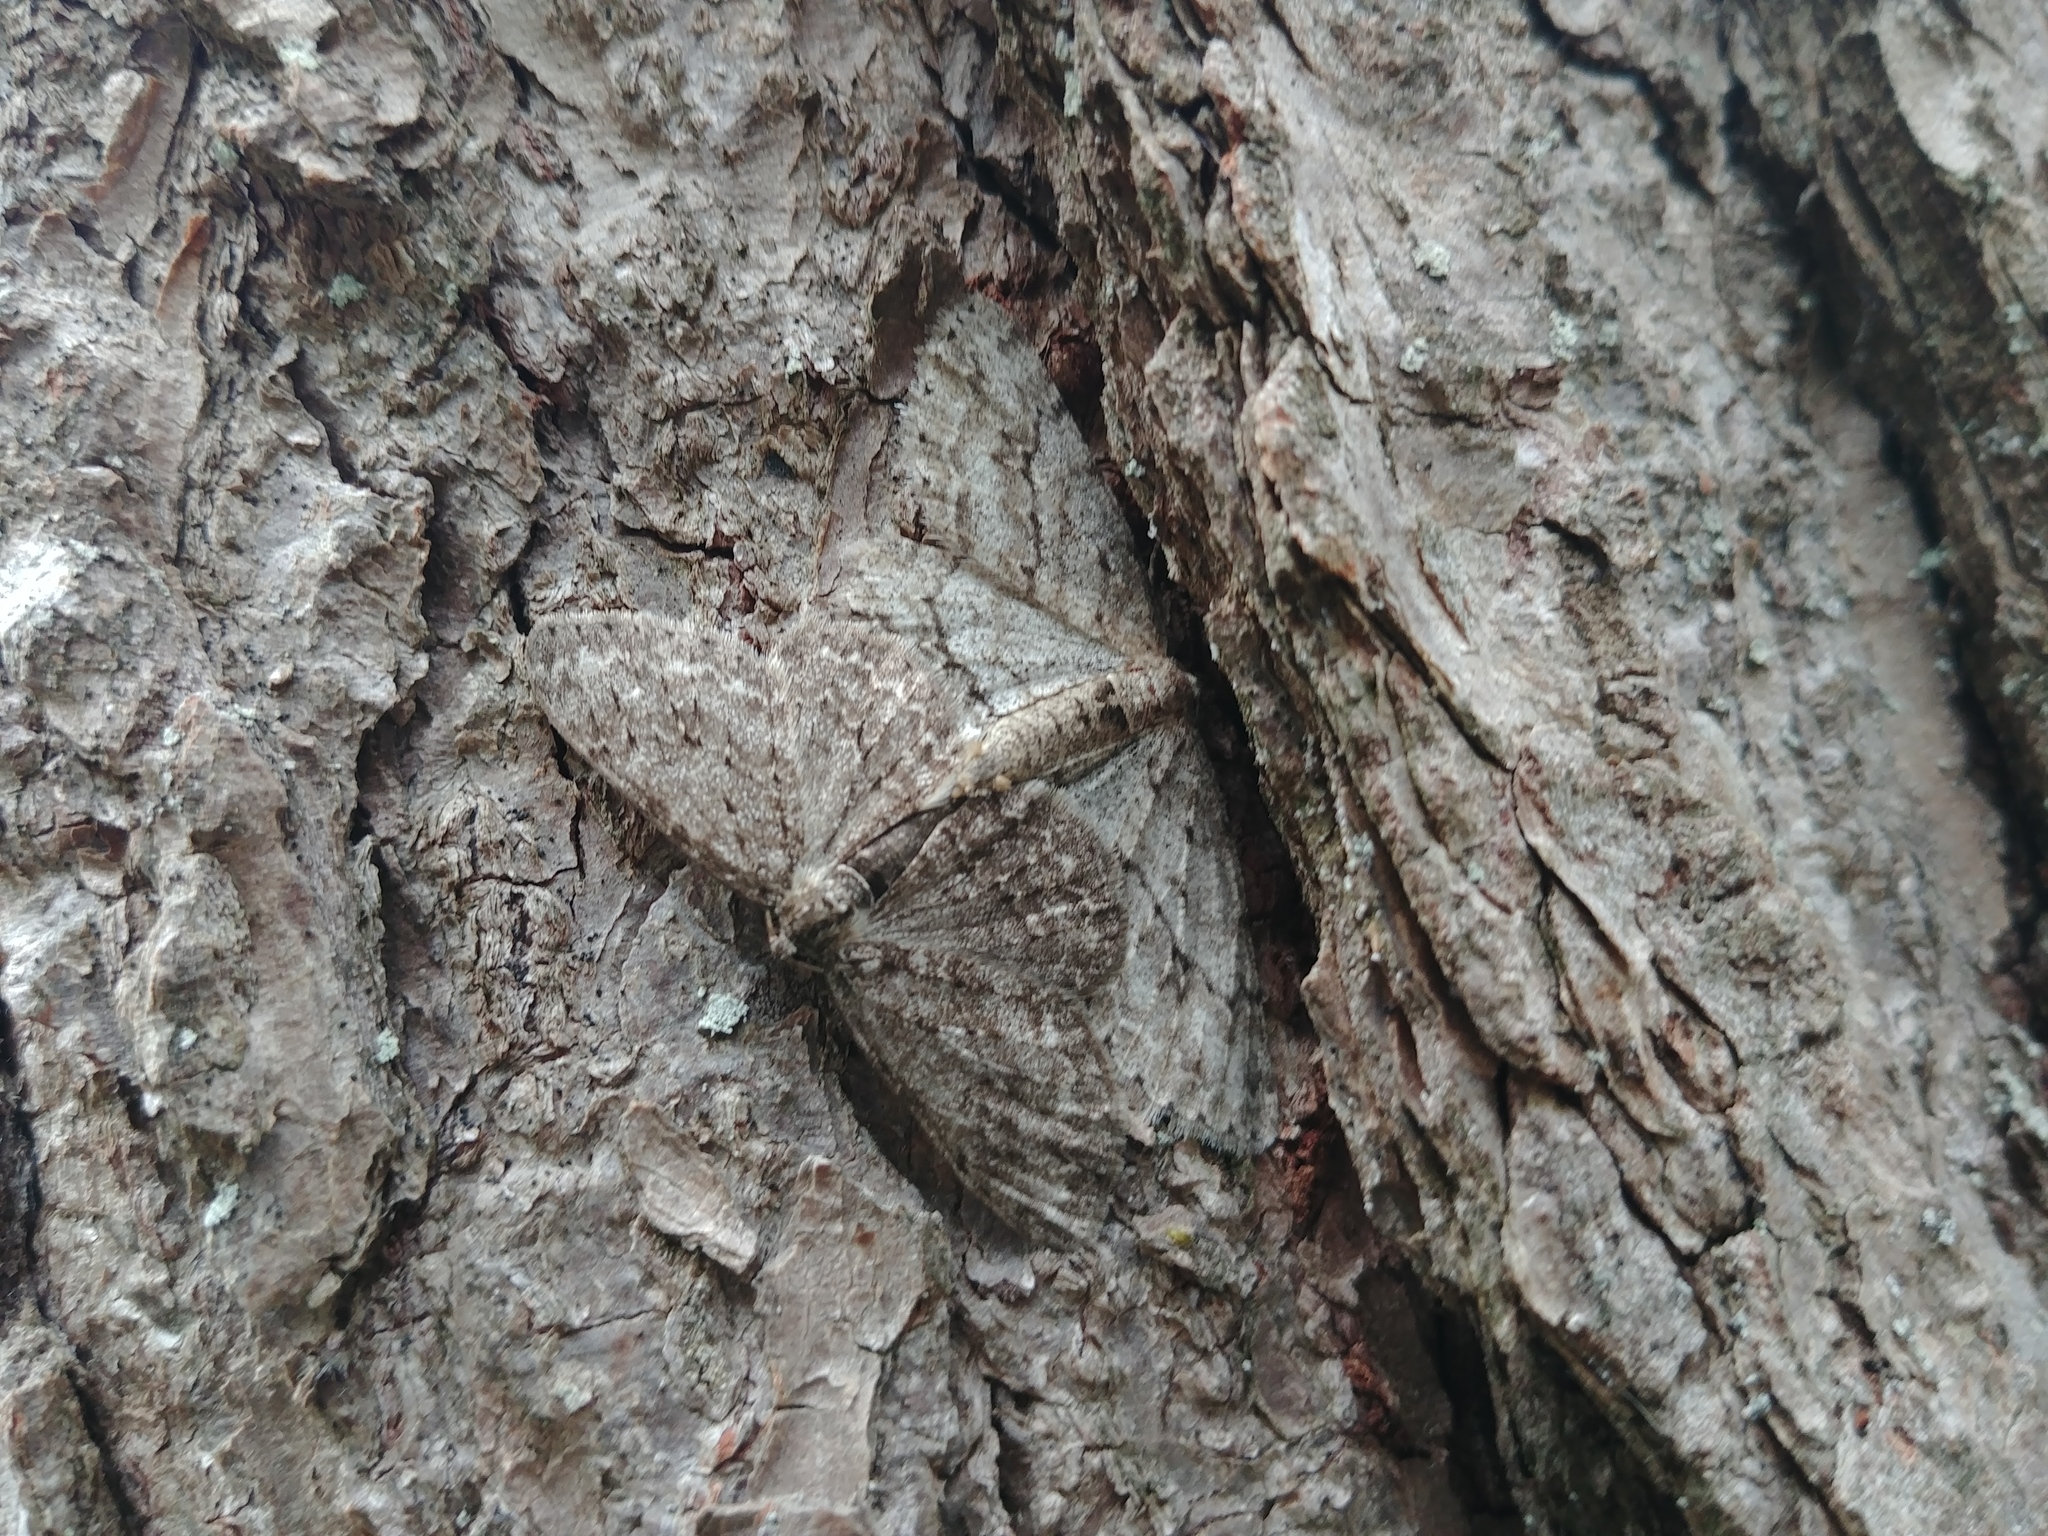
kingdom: Animalia
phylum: Arthropoda
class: Insecta
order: Lepidoptera
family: Geometridae
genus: Ectropis
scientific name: Ectropis crepuscularia
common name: Engrailed
